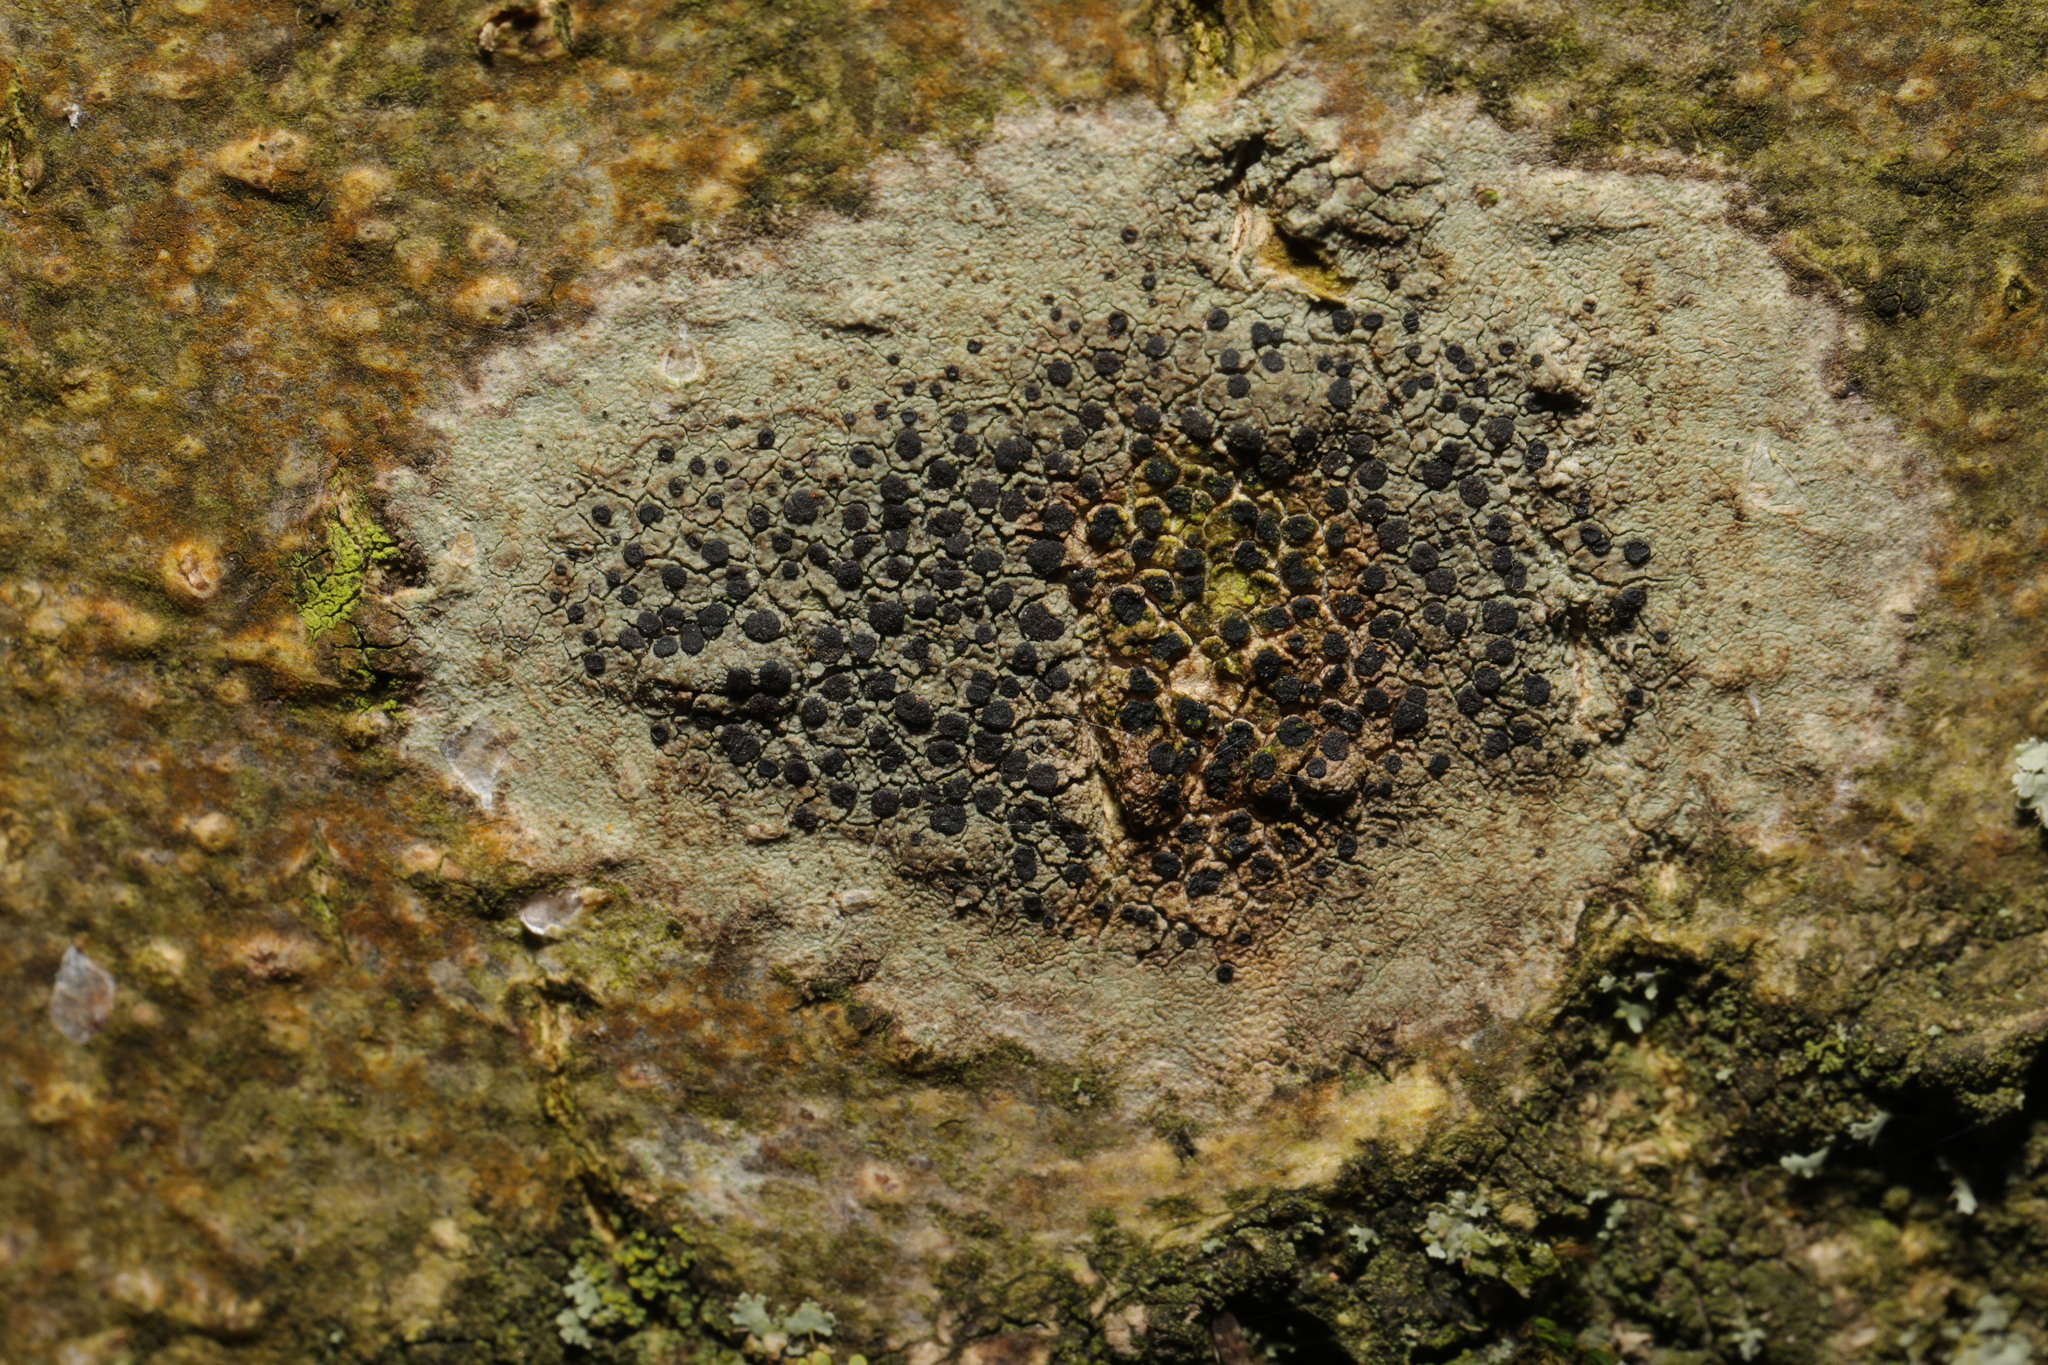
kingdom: Fungi
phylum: Ascomycota
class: Lecanoromycetes
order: Lecanorales
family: Lecanoraceae
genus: Lecidella
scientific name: Lecidella elaeochroma
